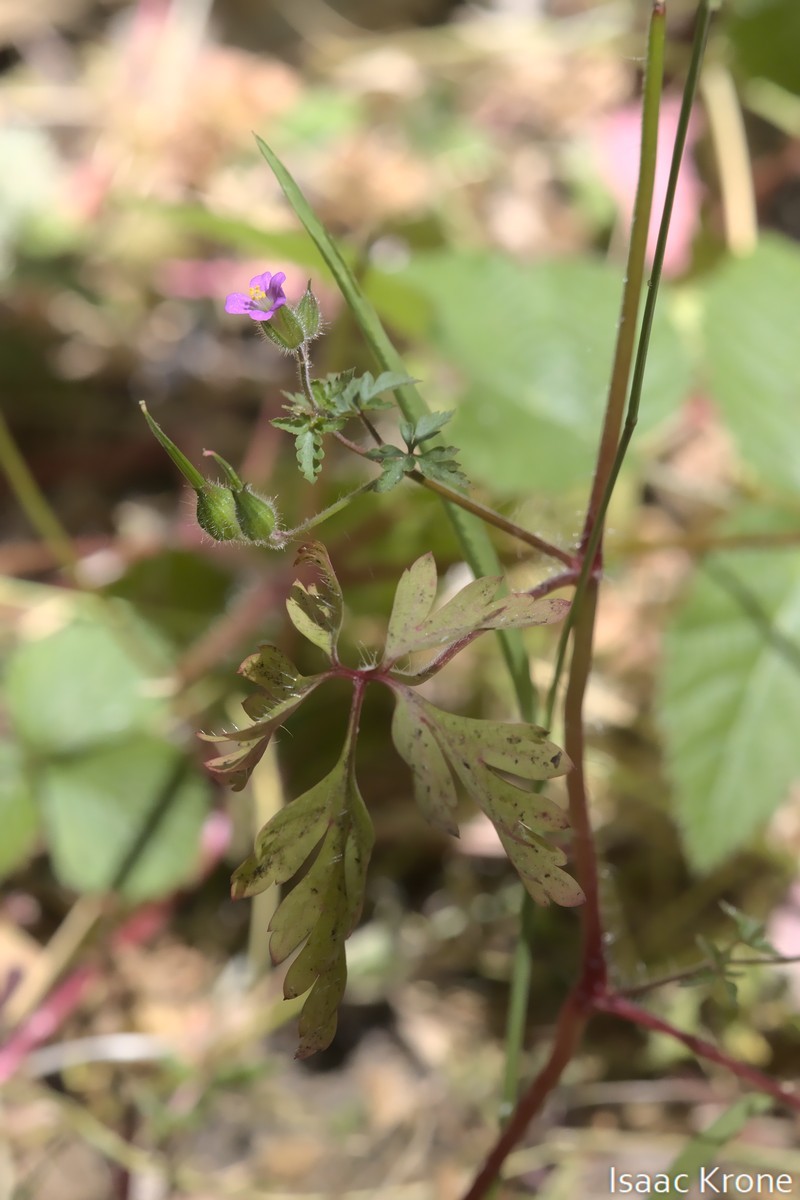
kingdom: Plantae
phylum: Tracheophyta
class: Magnoliopsida
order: Geraniales
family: Geraniaceae
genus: Geranium
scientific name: Geranium purpureum
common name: Little-robin
